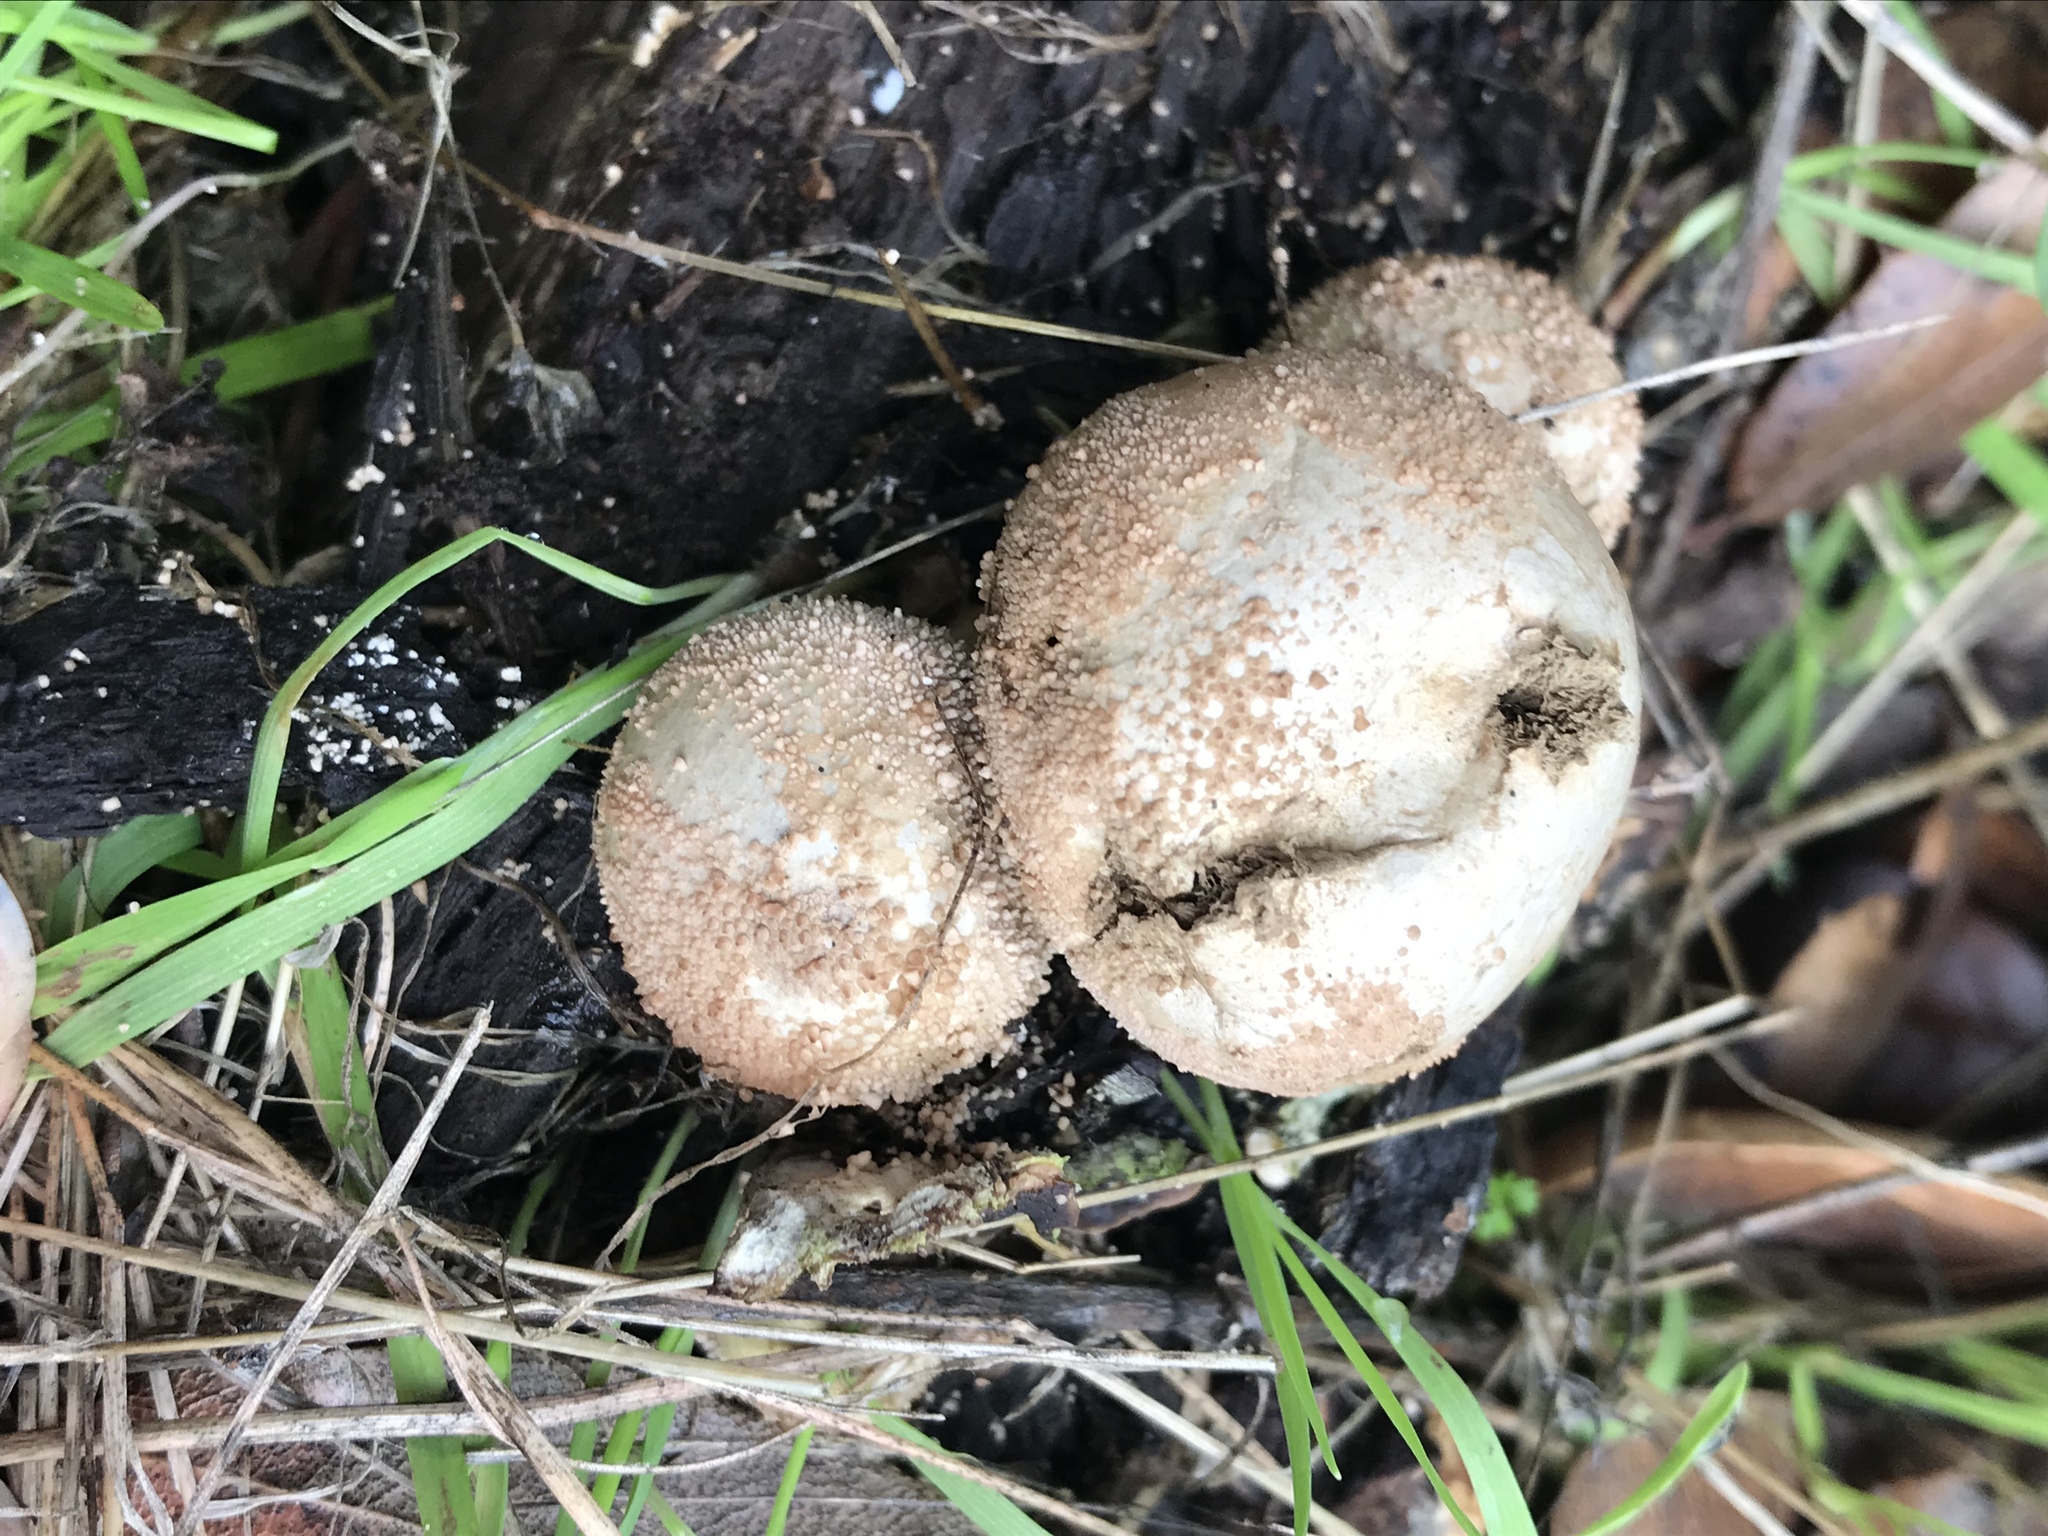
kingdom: Fungi
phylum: Basidiomycota
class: Agaricomycetes
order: Agaricales
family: Lycoperdaceae
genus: Apioperdon
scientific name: Apioperdon pyriforme
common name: Pear-shaped puffball
